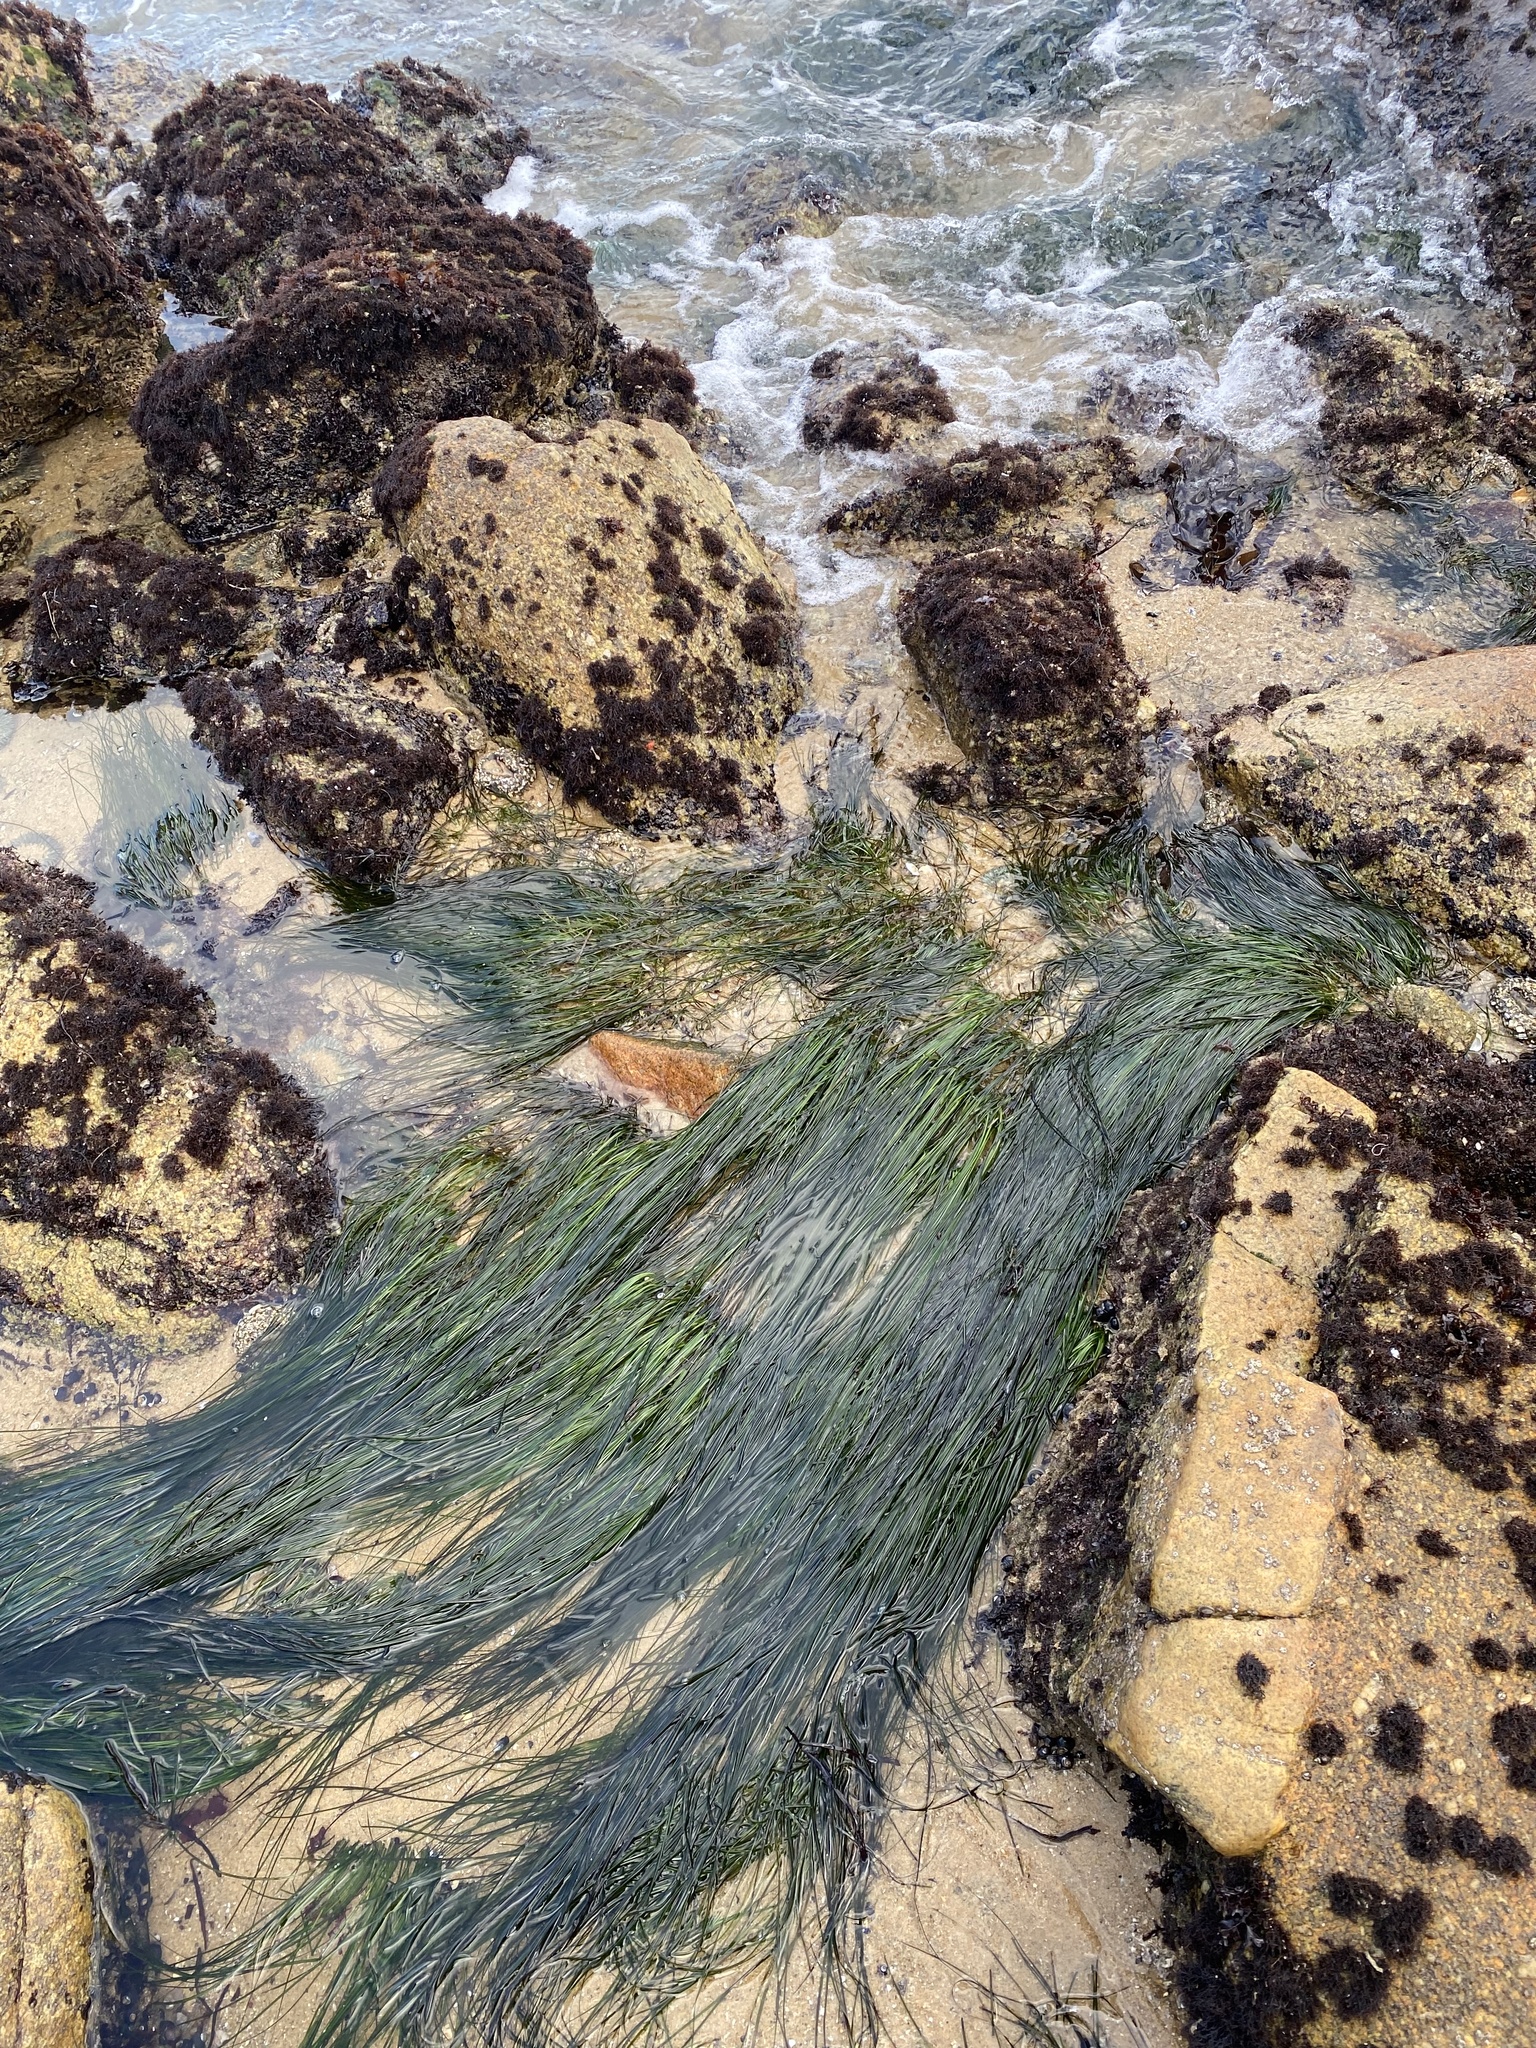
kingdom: Plantae
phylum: Tracheophyta
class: Liliopsida
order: Alismatales
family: Zosteraceae
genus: Phyllospadix
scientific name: Phyllospadix torreyi
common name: Surfgrass
